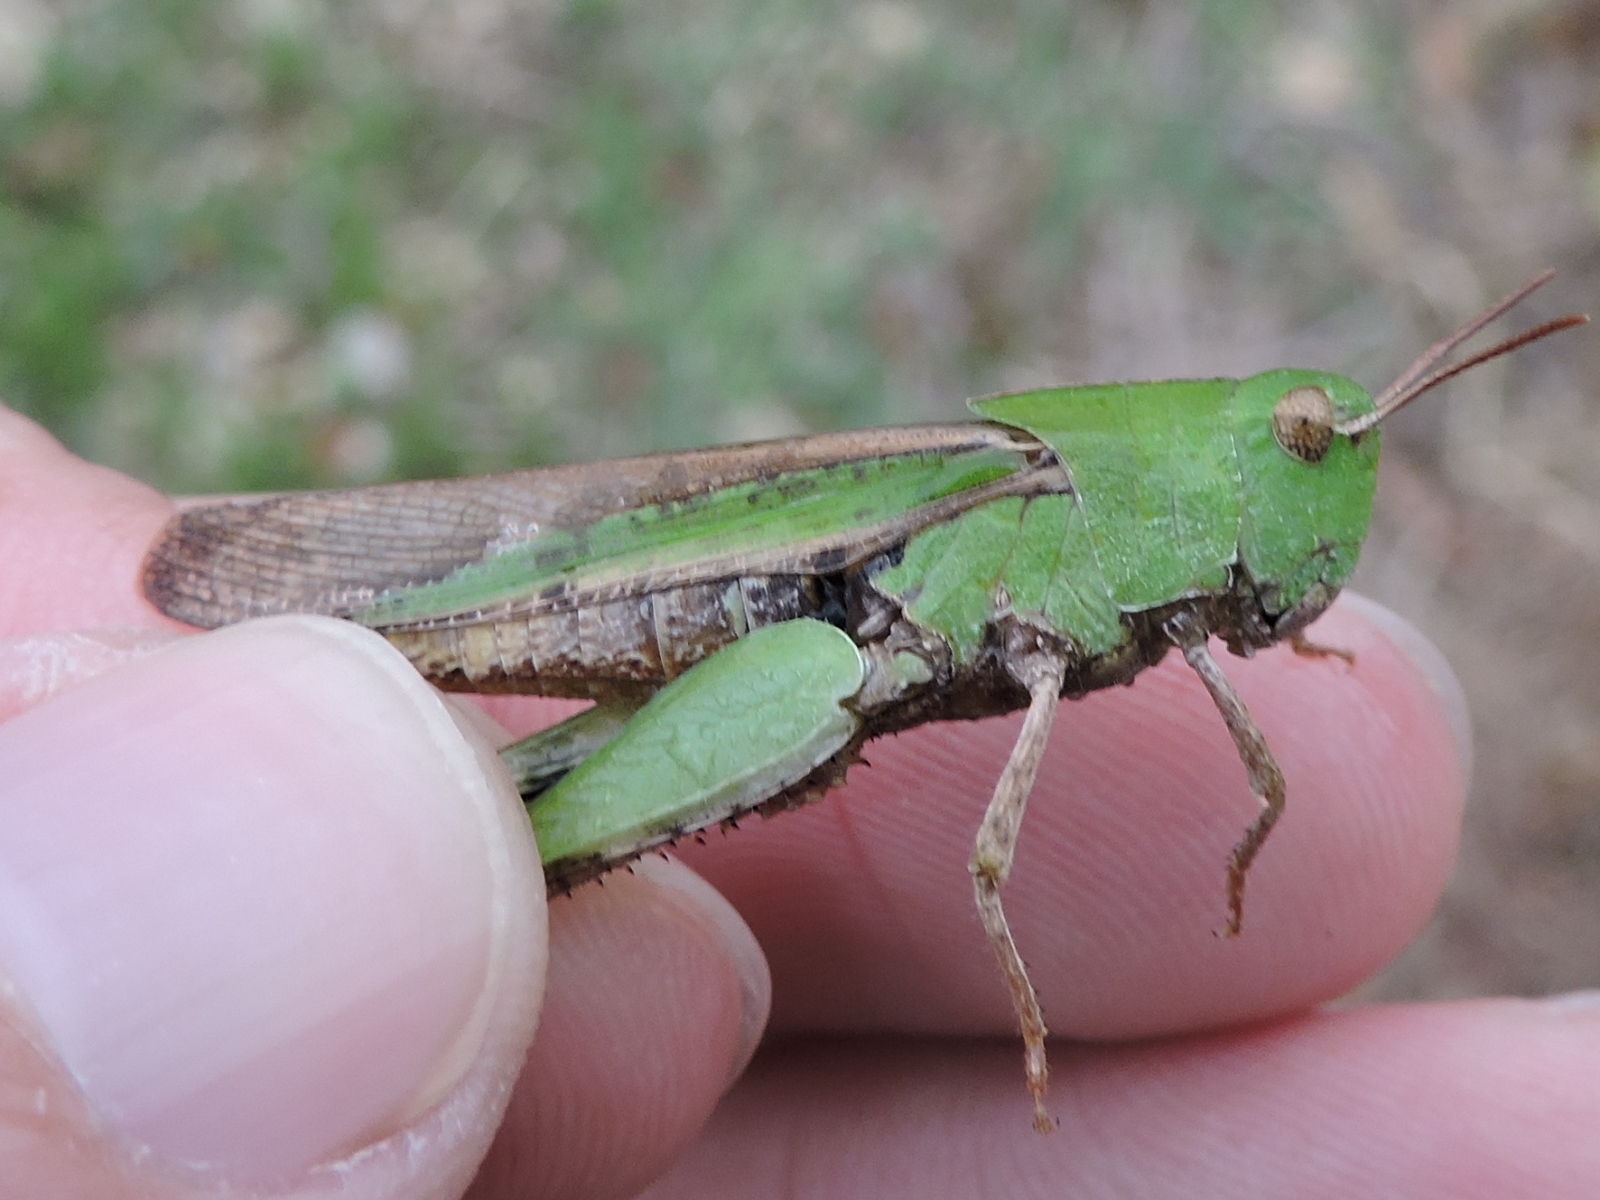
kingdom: Animalia
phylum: Arthropoda
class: Insecta
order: Orthoptera
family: Acrididae
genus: Chortophaga
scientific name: Chortophaga viridifasciata
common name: Green-striped grasshopper
